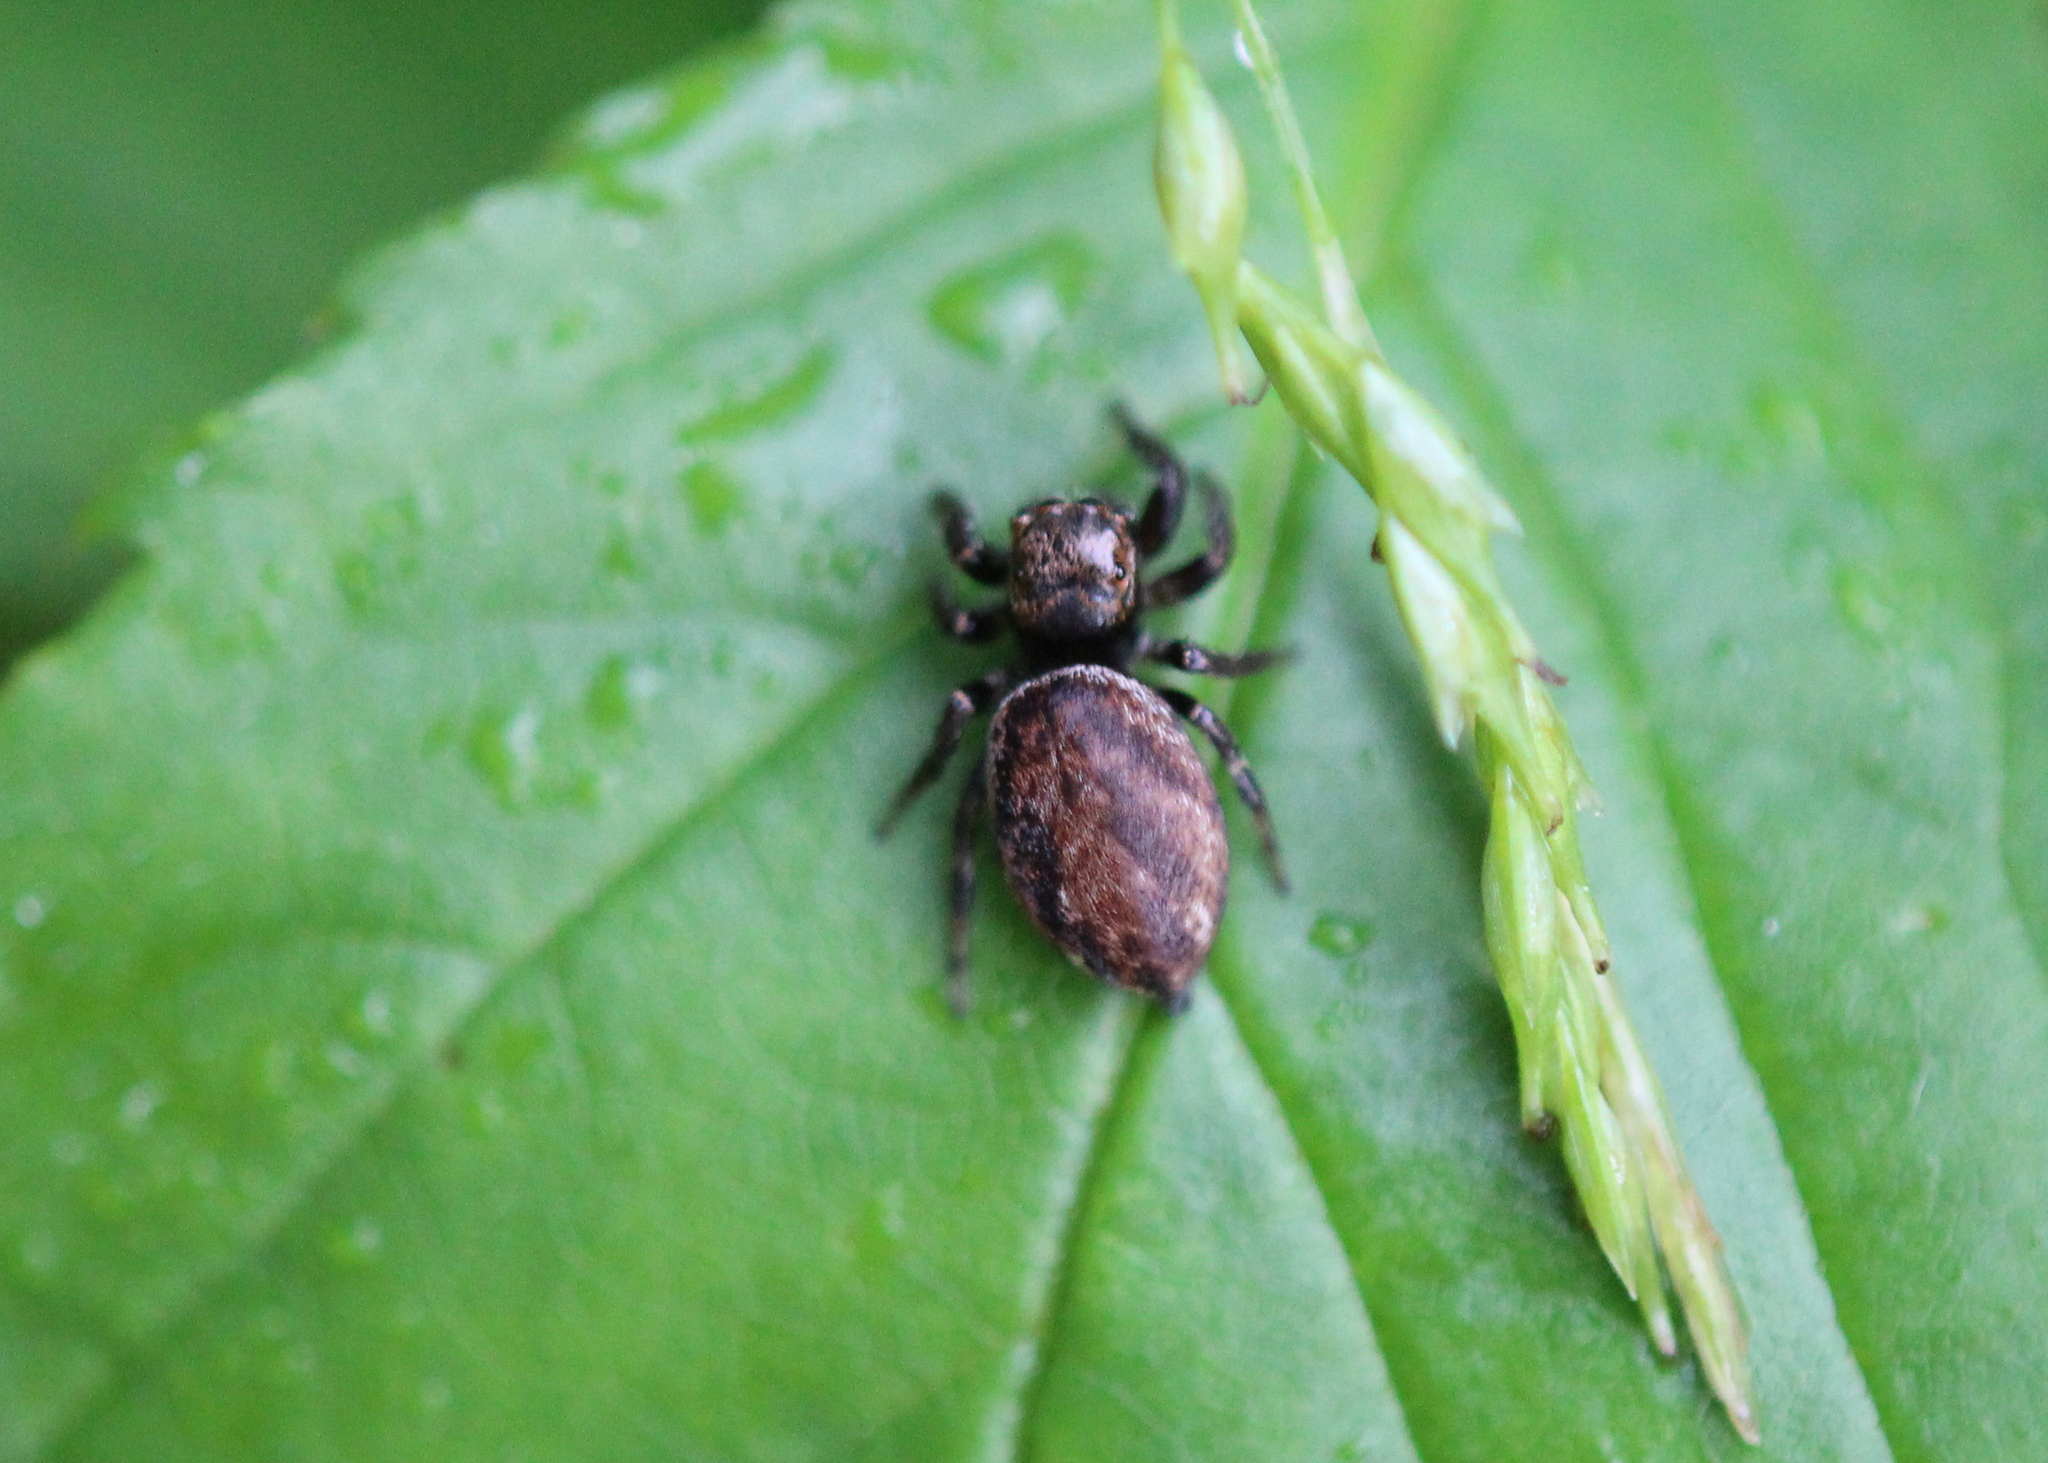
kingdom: Animalia
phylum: Arthropoda
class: Arachnida
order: Araneae
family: Salticidae
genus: Evarcha
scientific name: Evarcha hoyi
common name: Hoy's jumping spider
